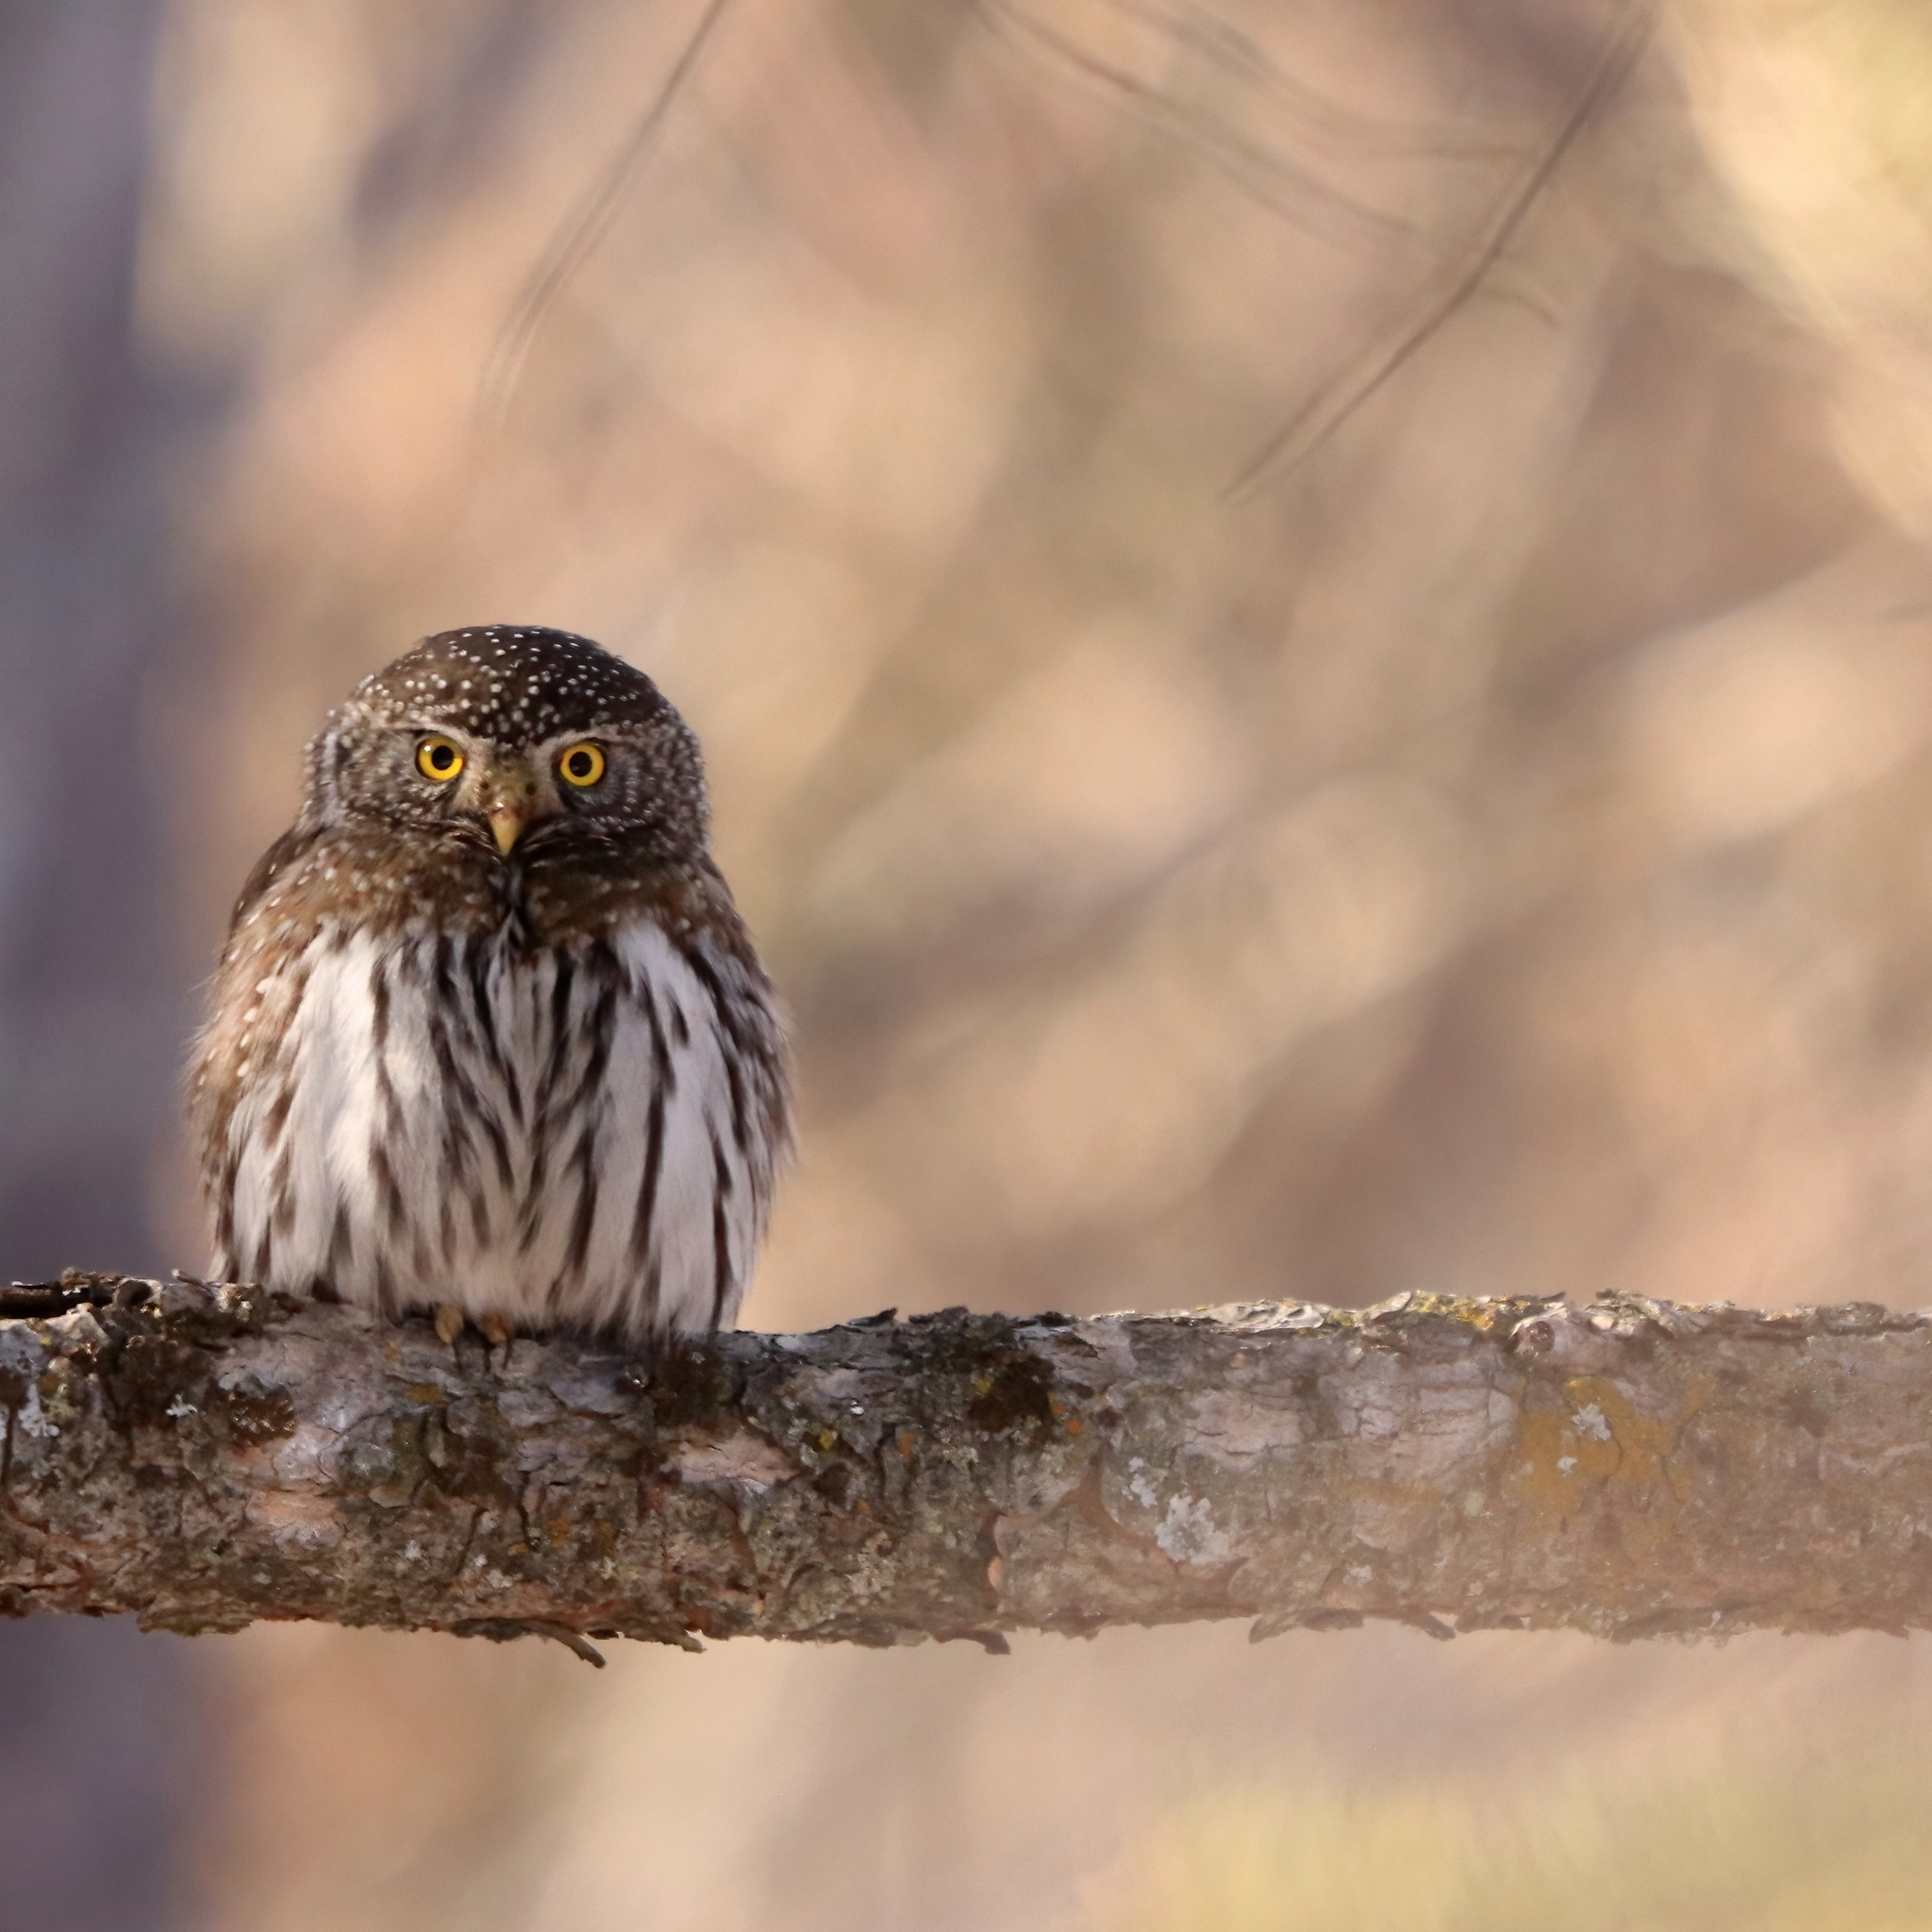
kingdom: Animalia
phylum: Chordata
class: Aves
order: Strigiformes
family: Strigidae
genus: Glaucidium
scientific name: Glaucidium gnoma
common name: Northern pygmy-owl
